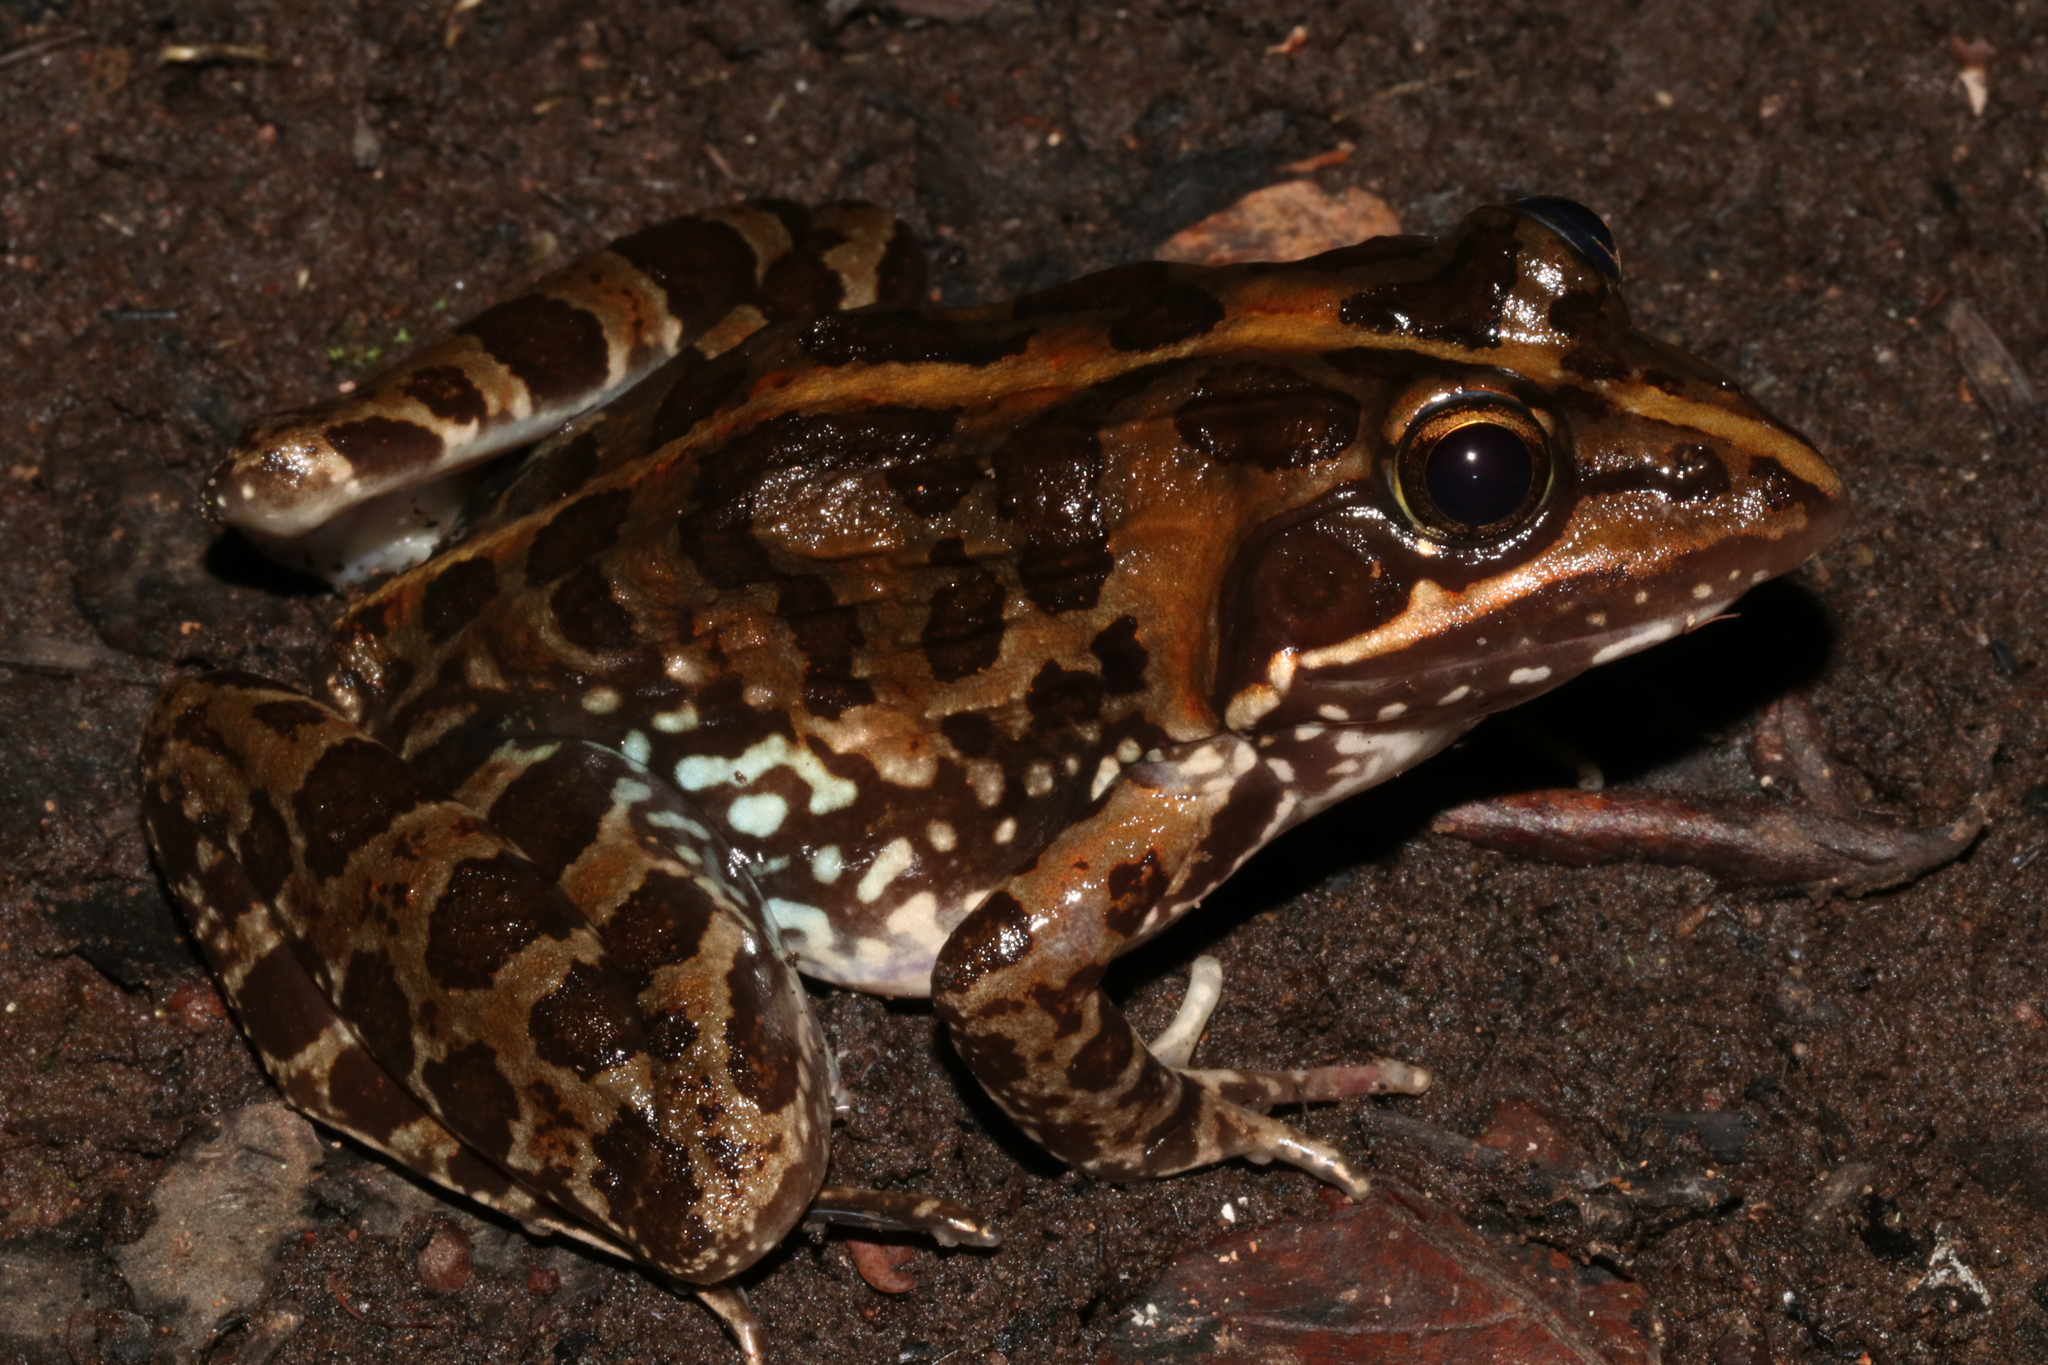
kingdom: Animalia
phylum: Chordata
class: Amphibia
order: Anura
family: Pyxicephalidae
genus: Amietia
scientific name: Amietia delalandii
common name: Delalande's river frog
